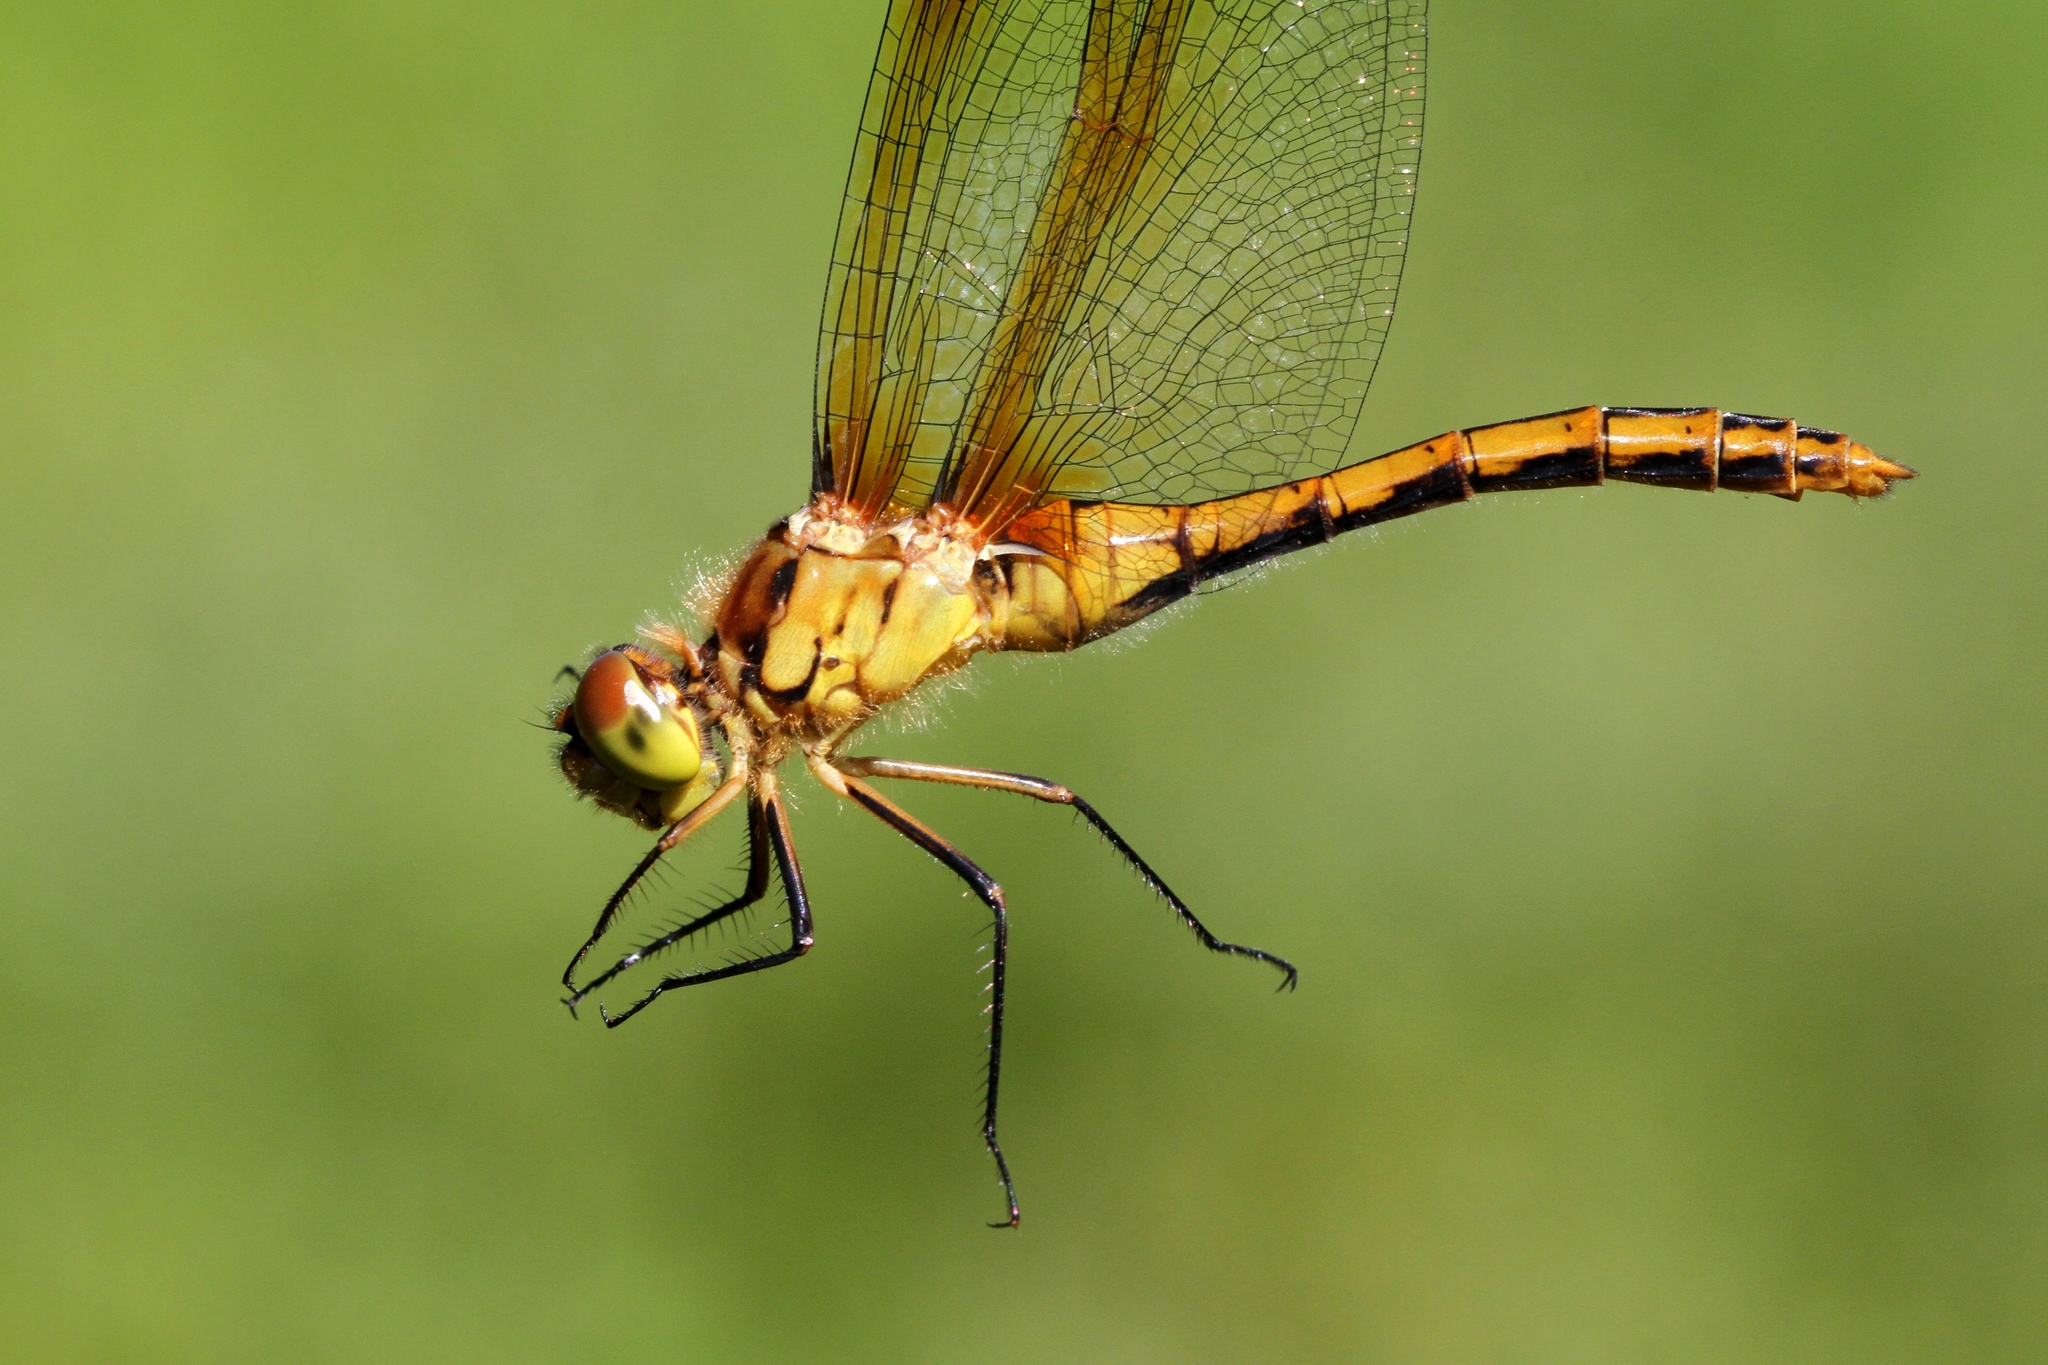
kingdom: Animalia
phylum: Arthropoda
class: Insecta
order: Odonata
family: Libellulidae
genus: Sympetrum
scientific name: Sympetrum costiferum
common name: Saffron-winged meadowhawk
